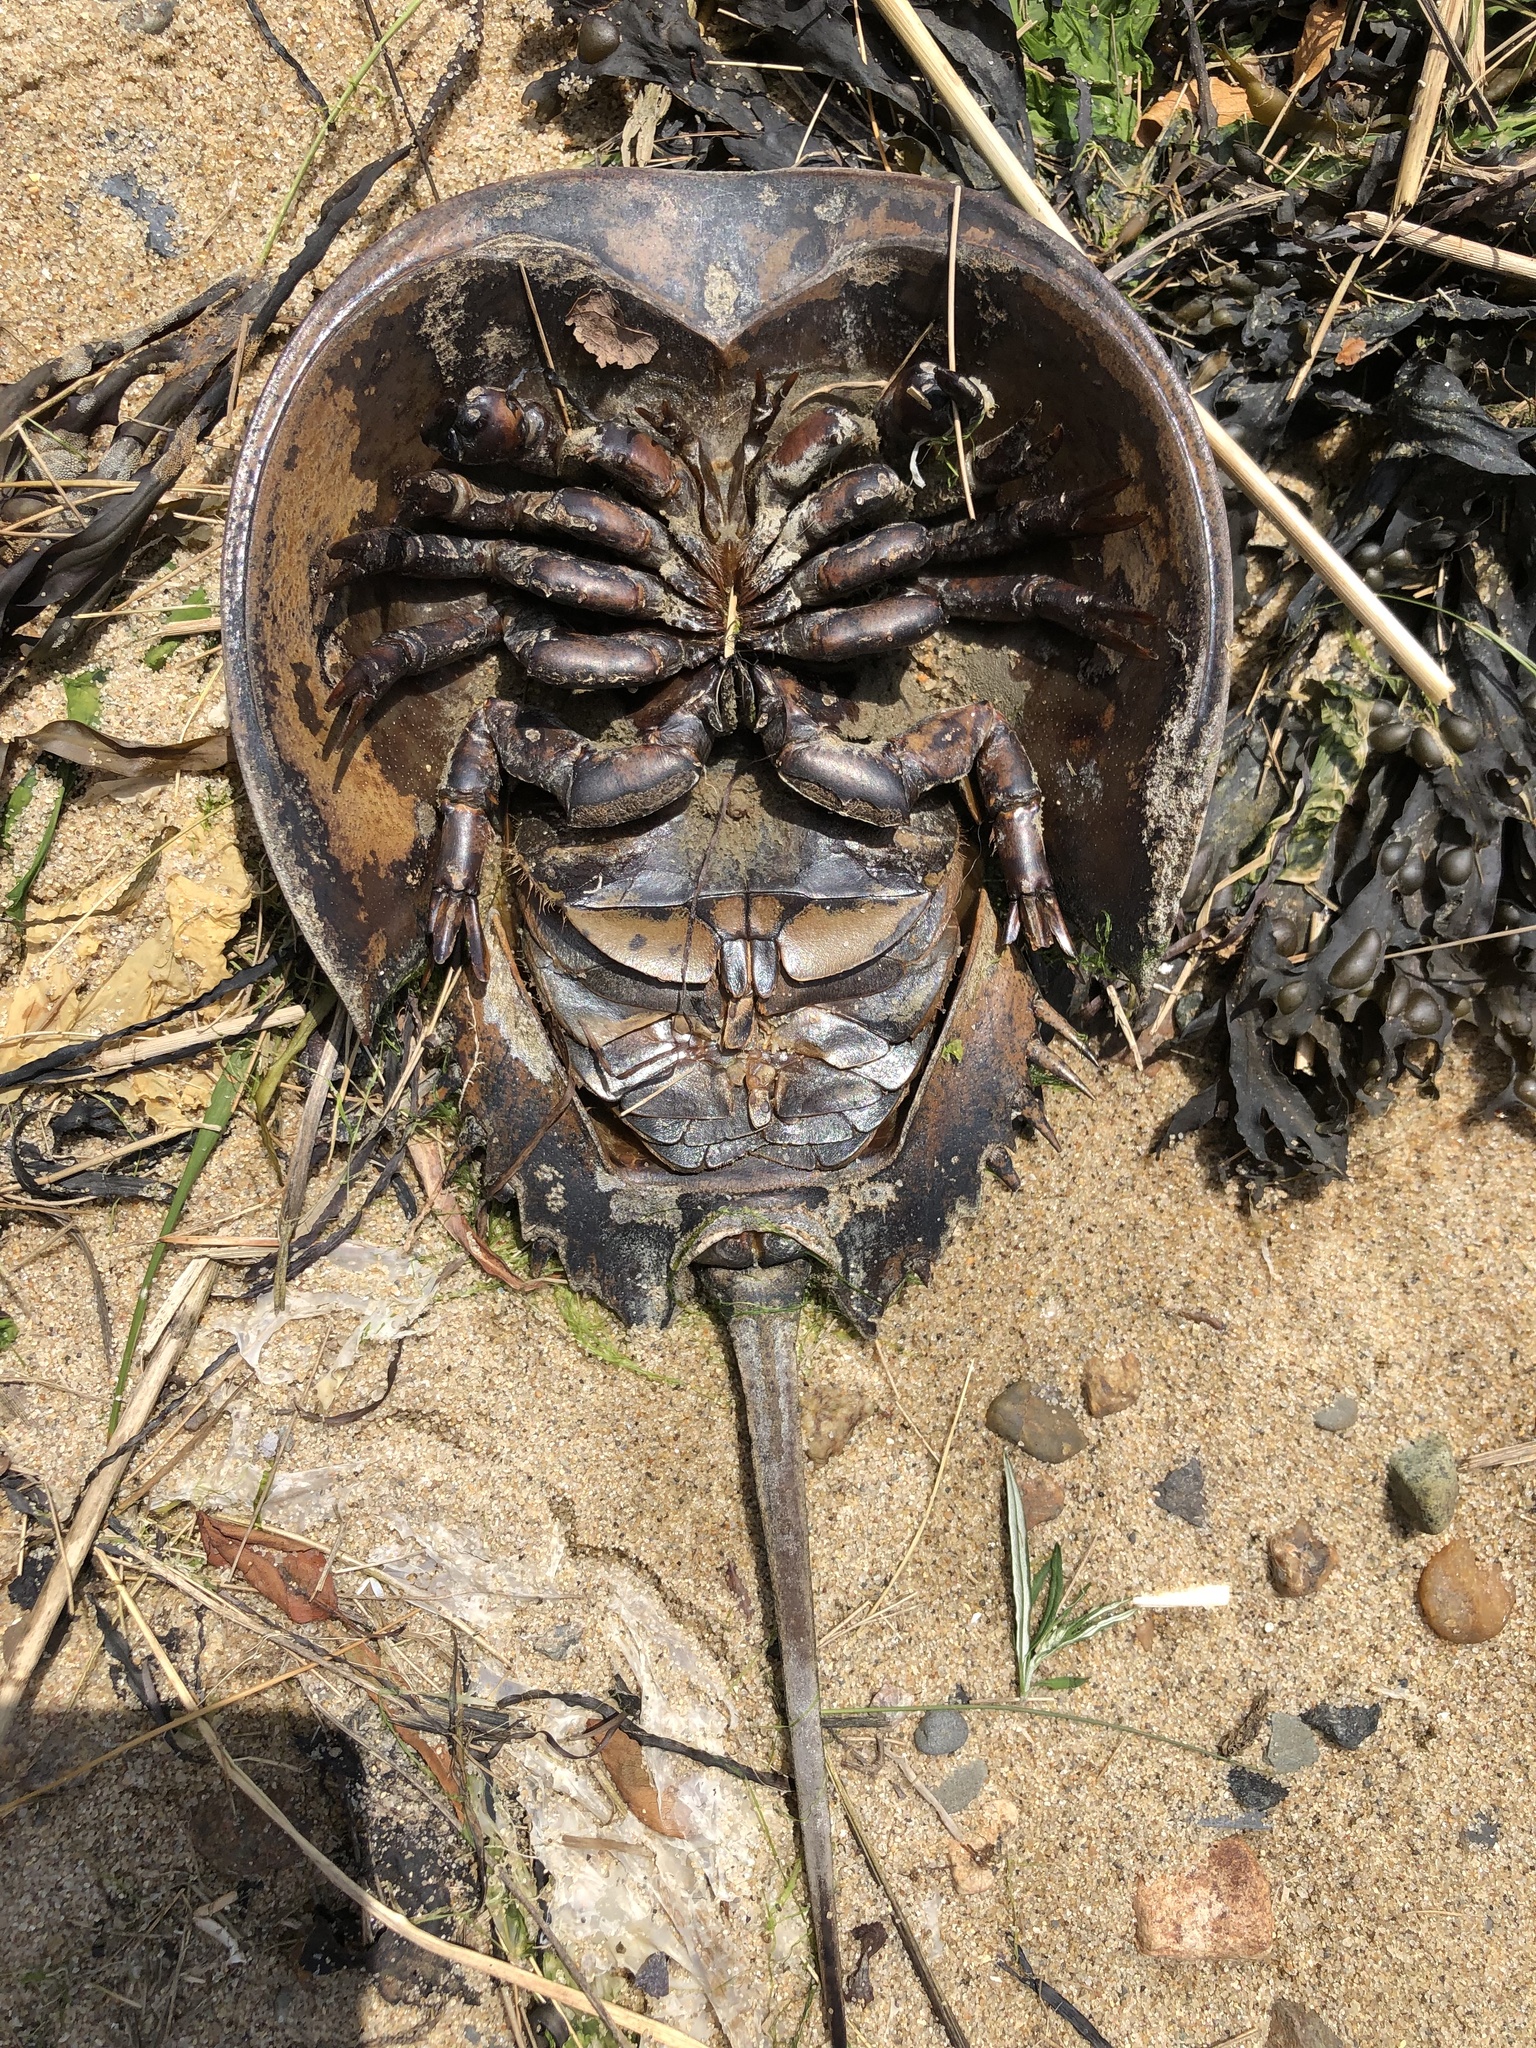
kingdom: Animalia
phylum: Arthropoda
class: Merostomata
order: Xiphosurida
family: Limulidae
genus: Limulus
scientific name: Limulus polyphemus
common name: Horseshoe crab
